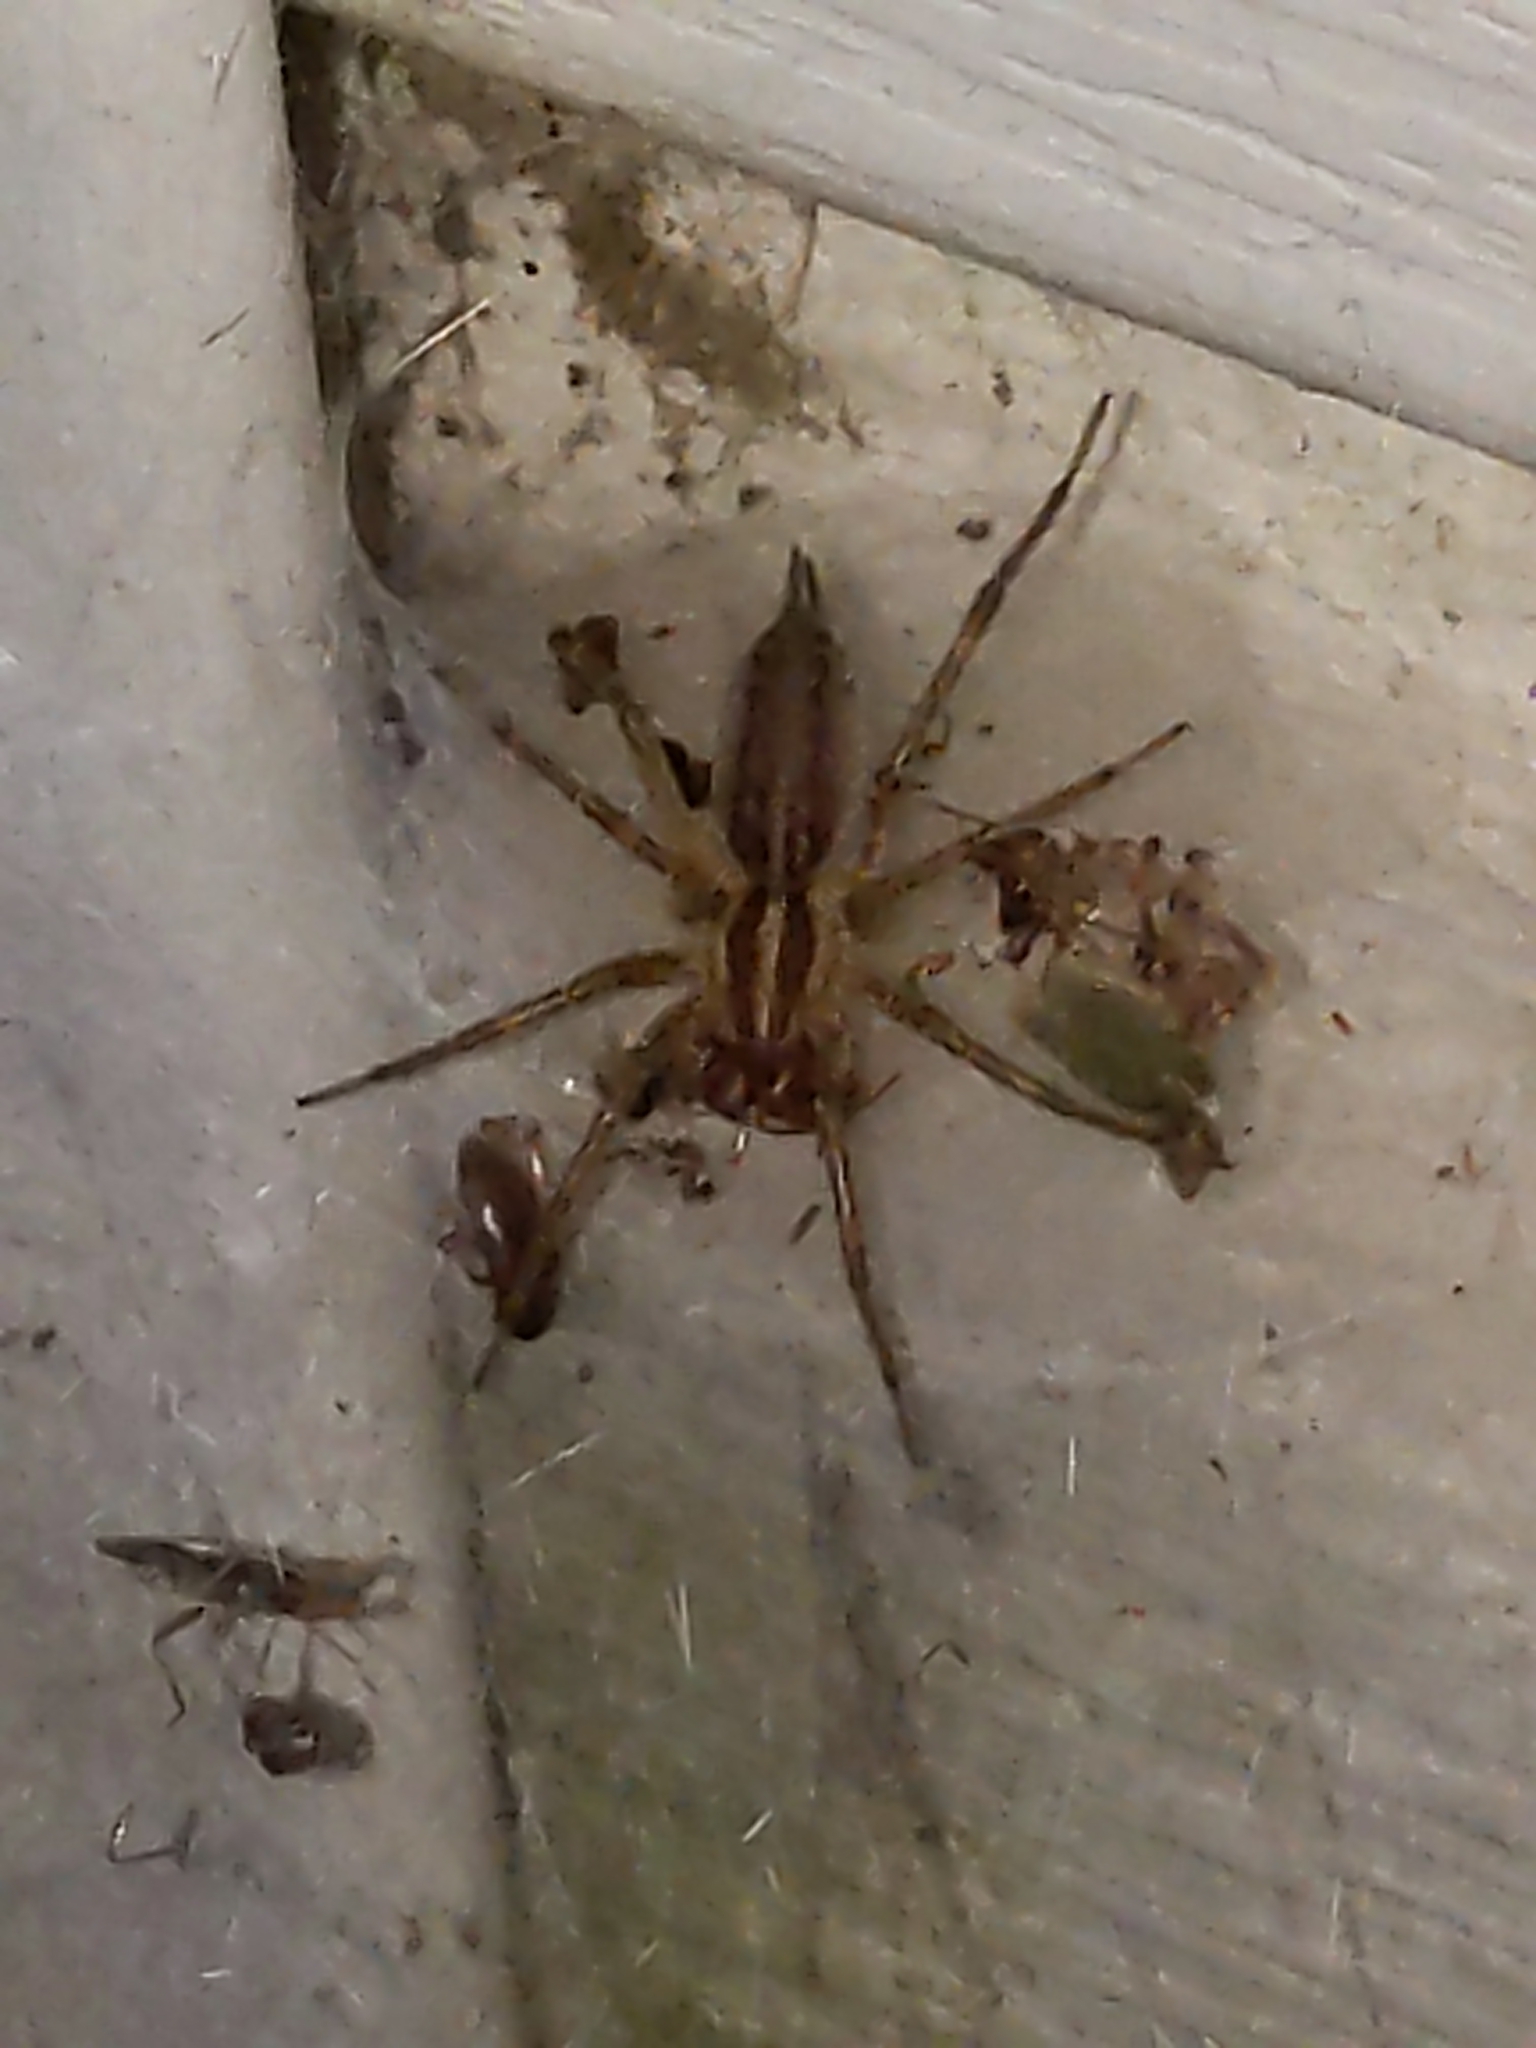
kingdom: Animalia
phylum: Arthropoda
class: Arachnida
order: Araneae
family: Agelenidae
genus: Agelenopsis
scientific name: Agelenopsis
